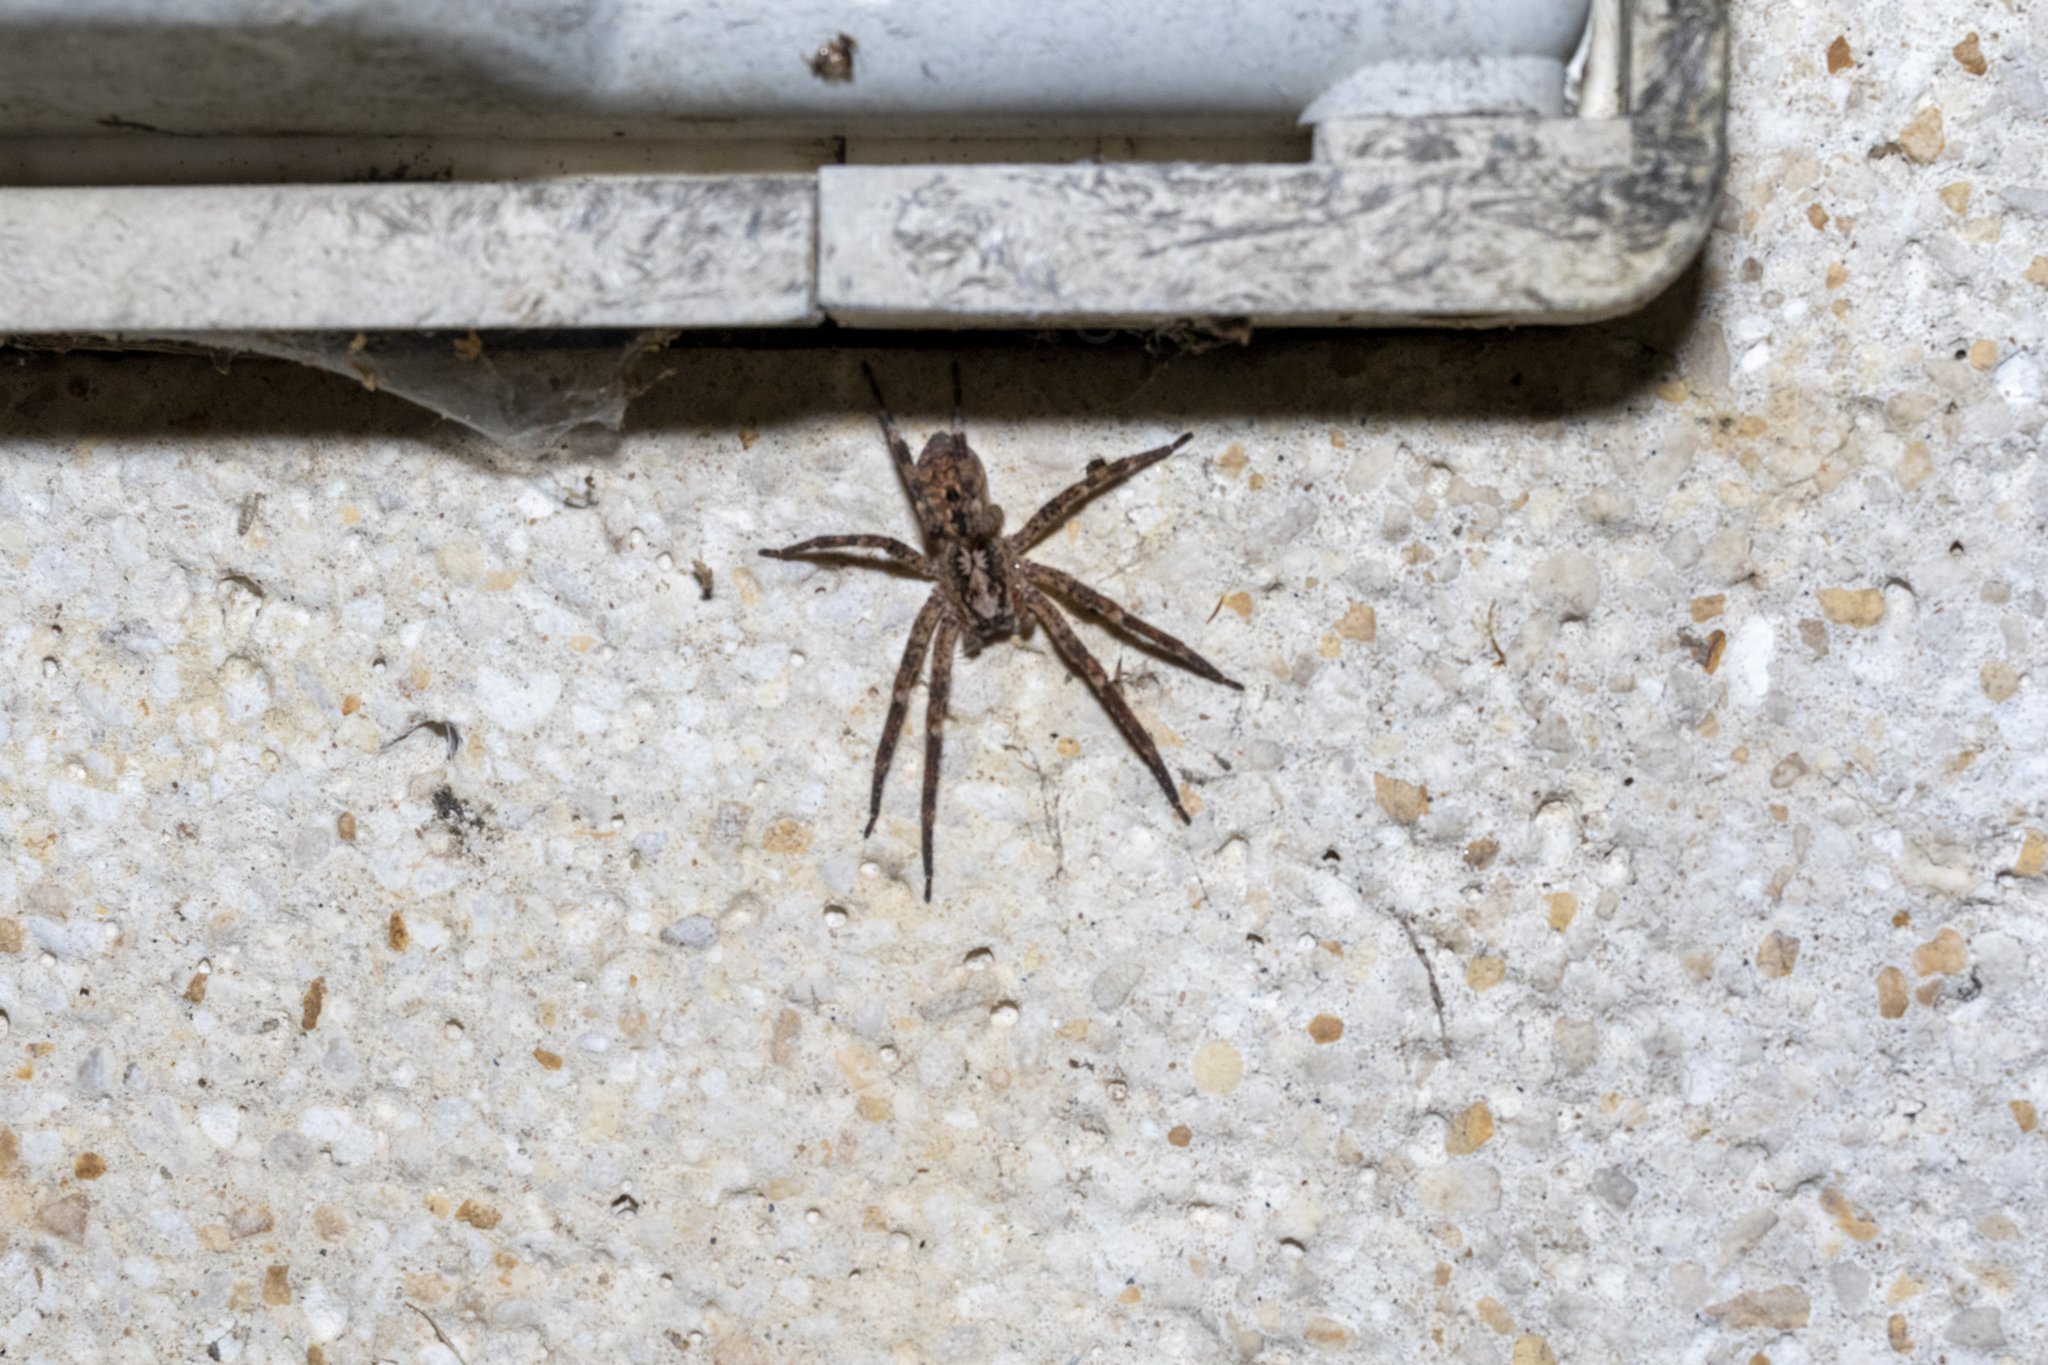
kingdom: Animalia
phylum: Arthropoda
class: Arachnida
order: Araneae
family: Zoropsidae
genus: Zoropsis
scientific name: Zoropsis spinimana
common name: Zoropsid spider
